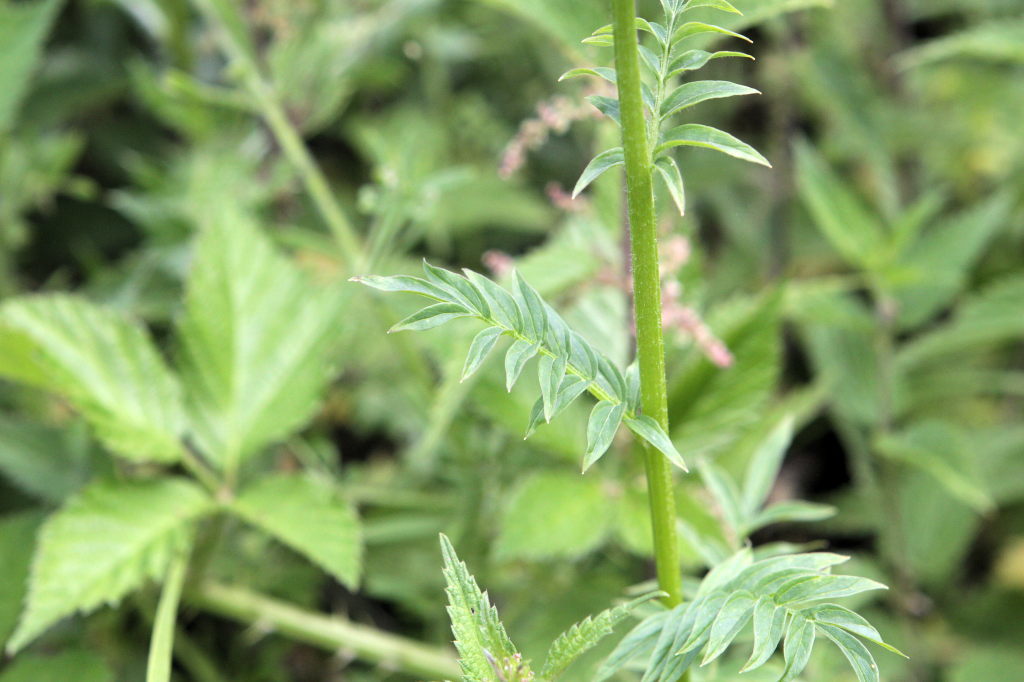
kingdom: Plantae
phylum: Tracheophyta
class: Magnoliopsida
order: Ericales
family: Polemoniaceae
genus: Polemonium
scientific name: Polemonium caeruleum
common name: Jacob's-ladder
